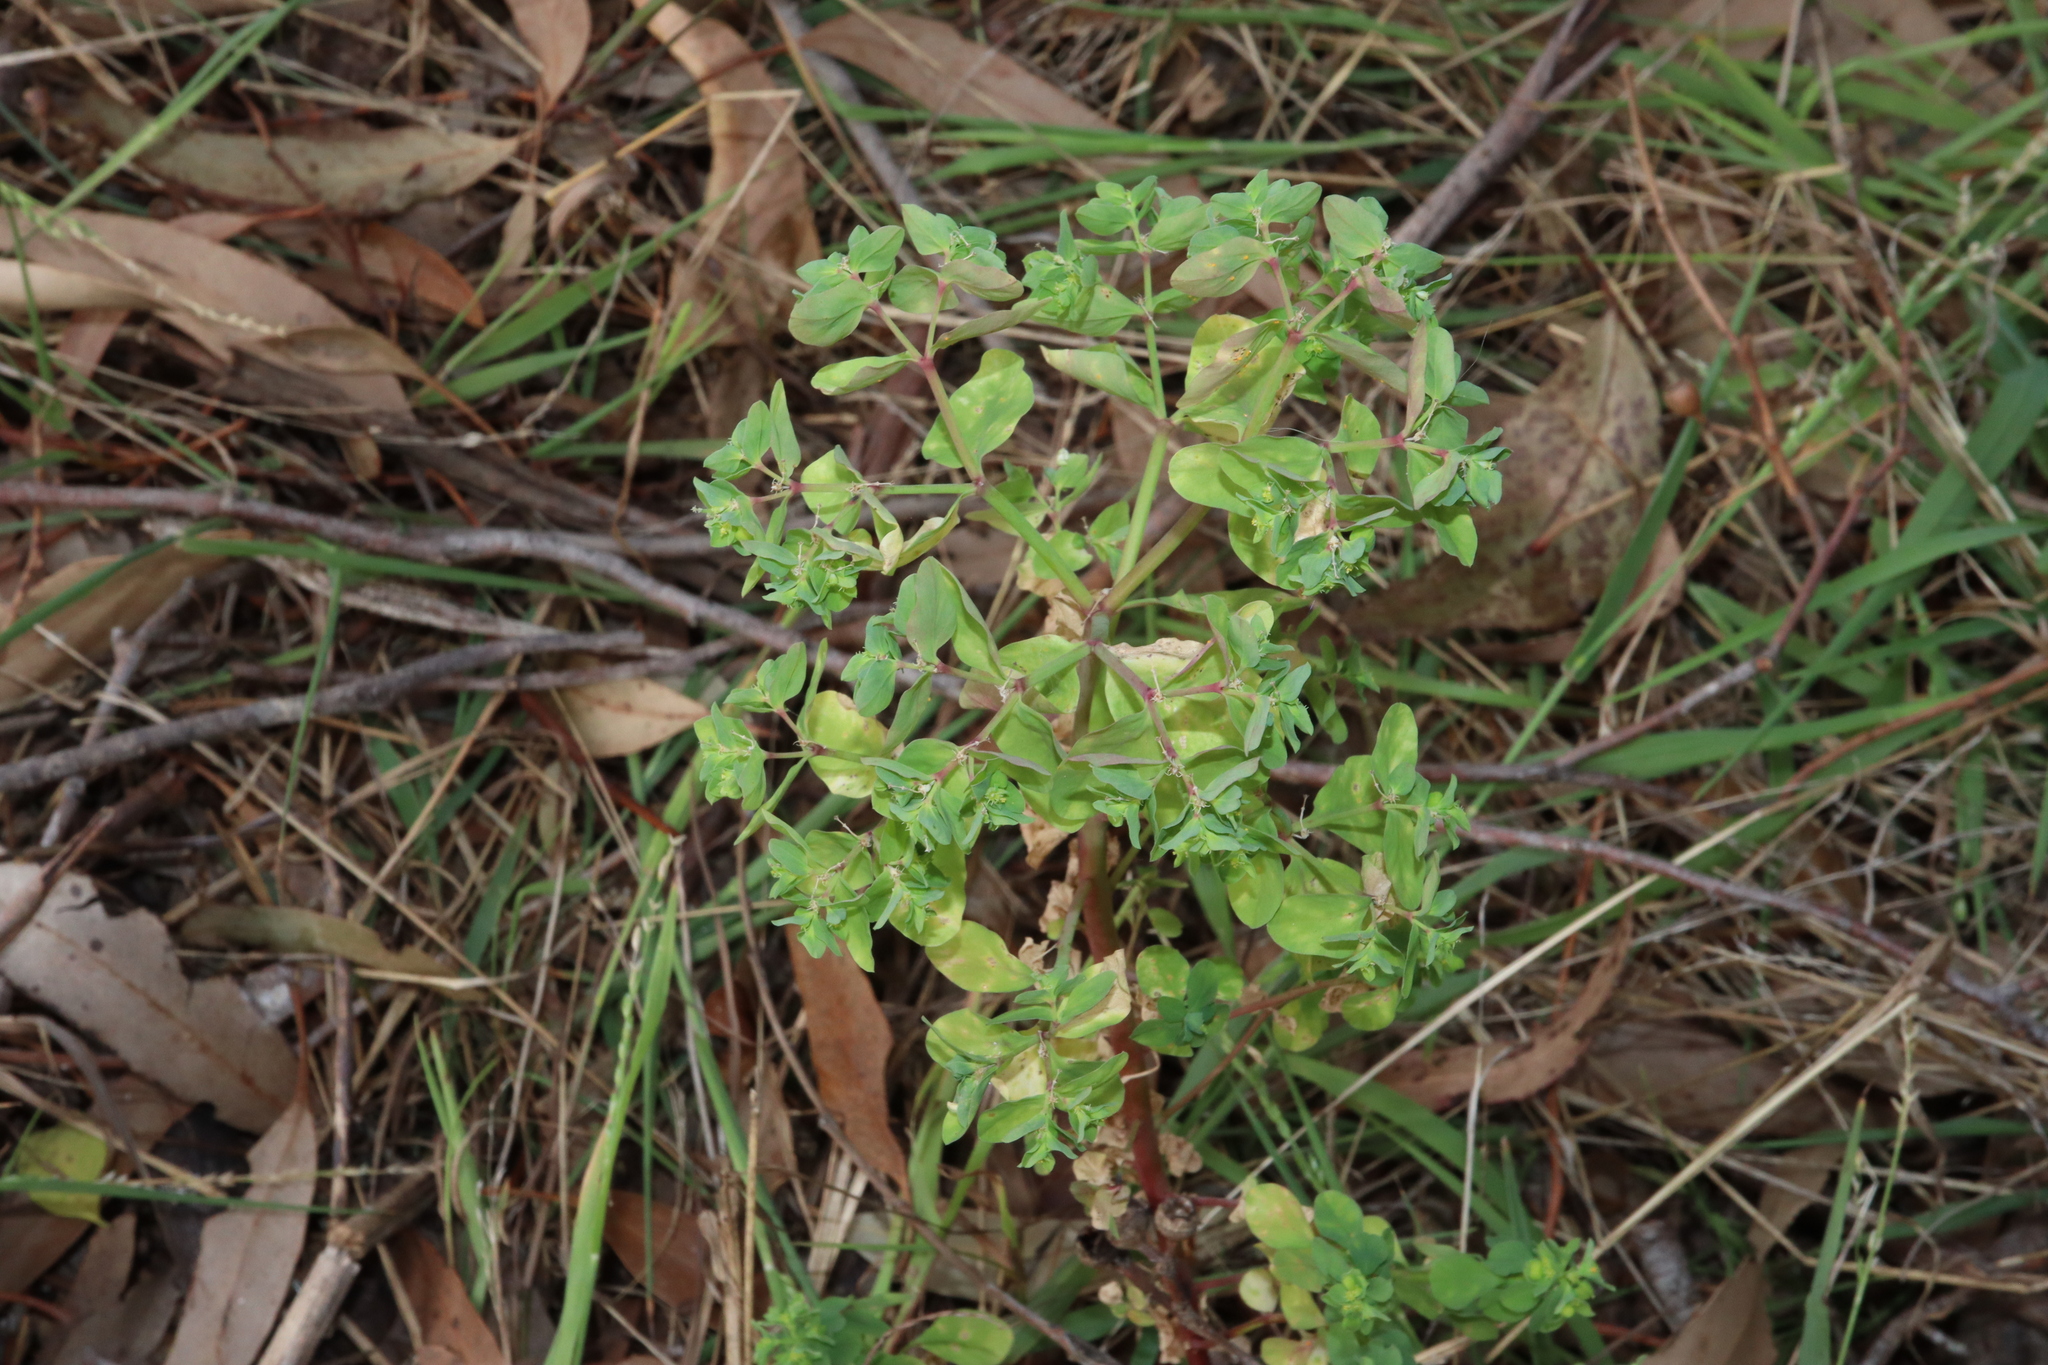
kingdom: Plantae
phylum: Tracheophyta
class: Magnoliopsida
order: Malpighiales
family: Euphorbiaceae
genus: Euphorbia
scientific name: Euphorbia peplus
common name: Petty spurge
